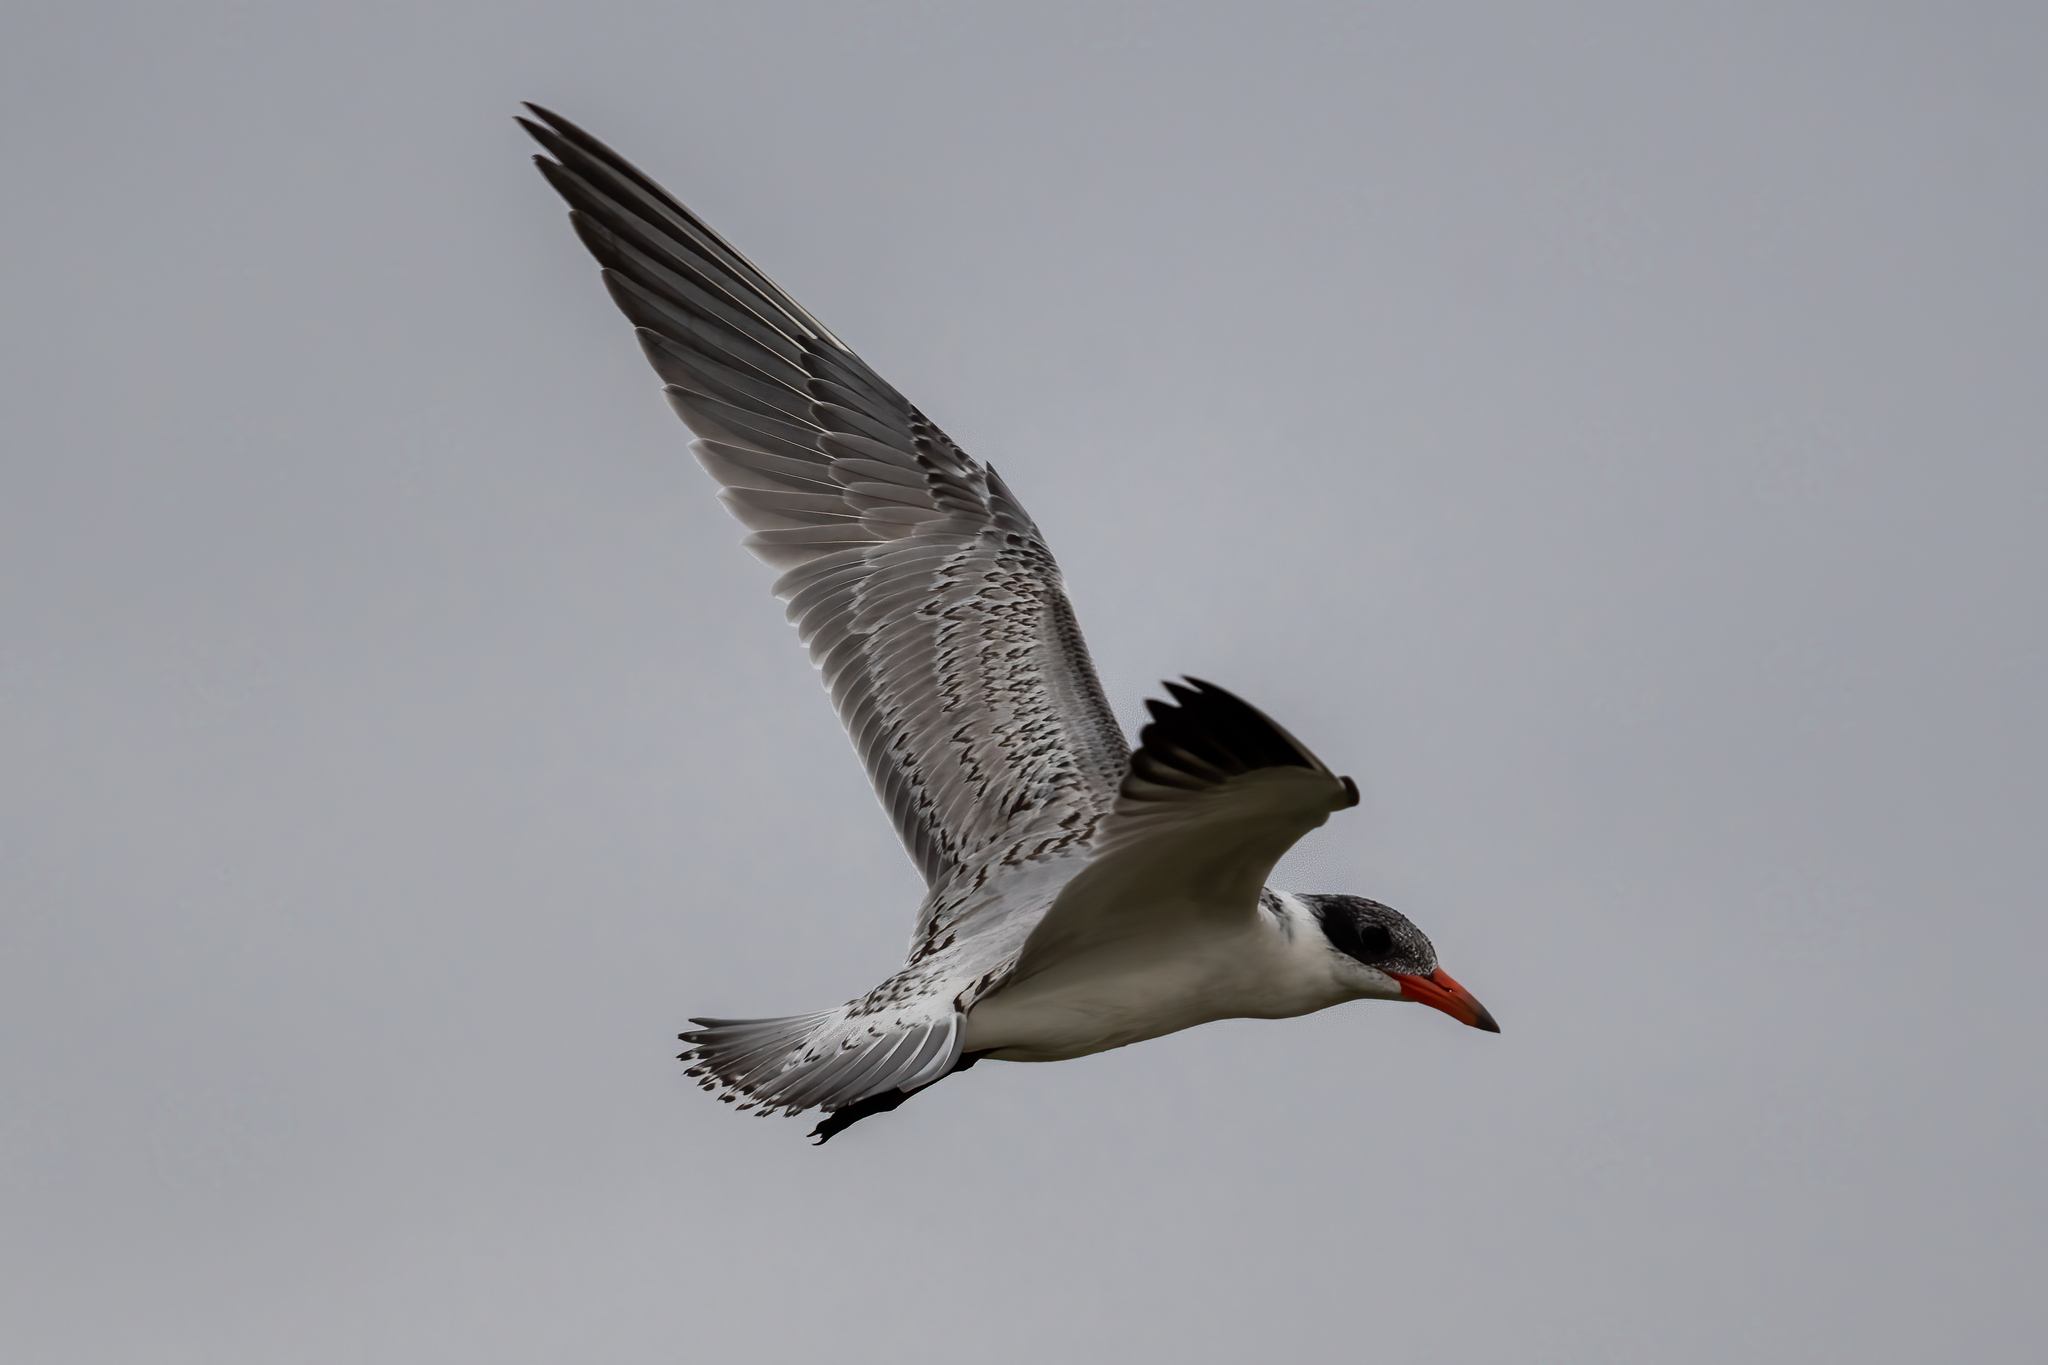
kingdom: Animalia
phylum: Chordata
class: Aves
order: Charadriiformes
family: Laridae
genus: Hydroprogne
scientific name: Hydroprogne caspia
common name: Caspian tern
